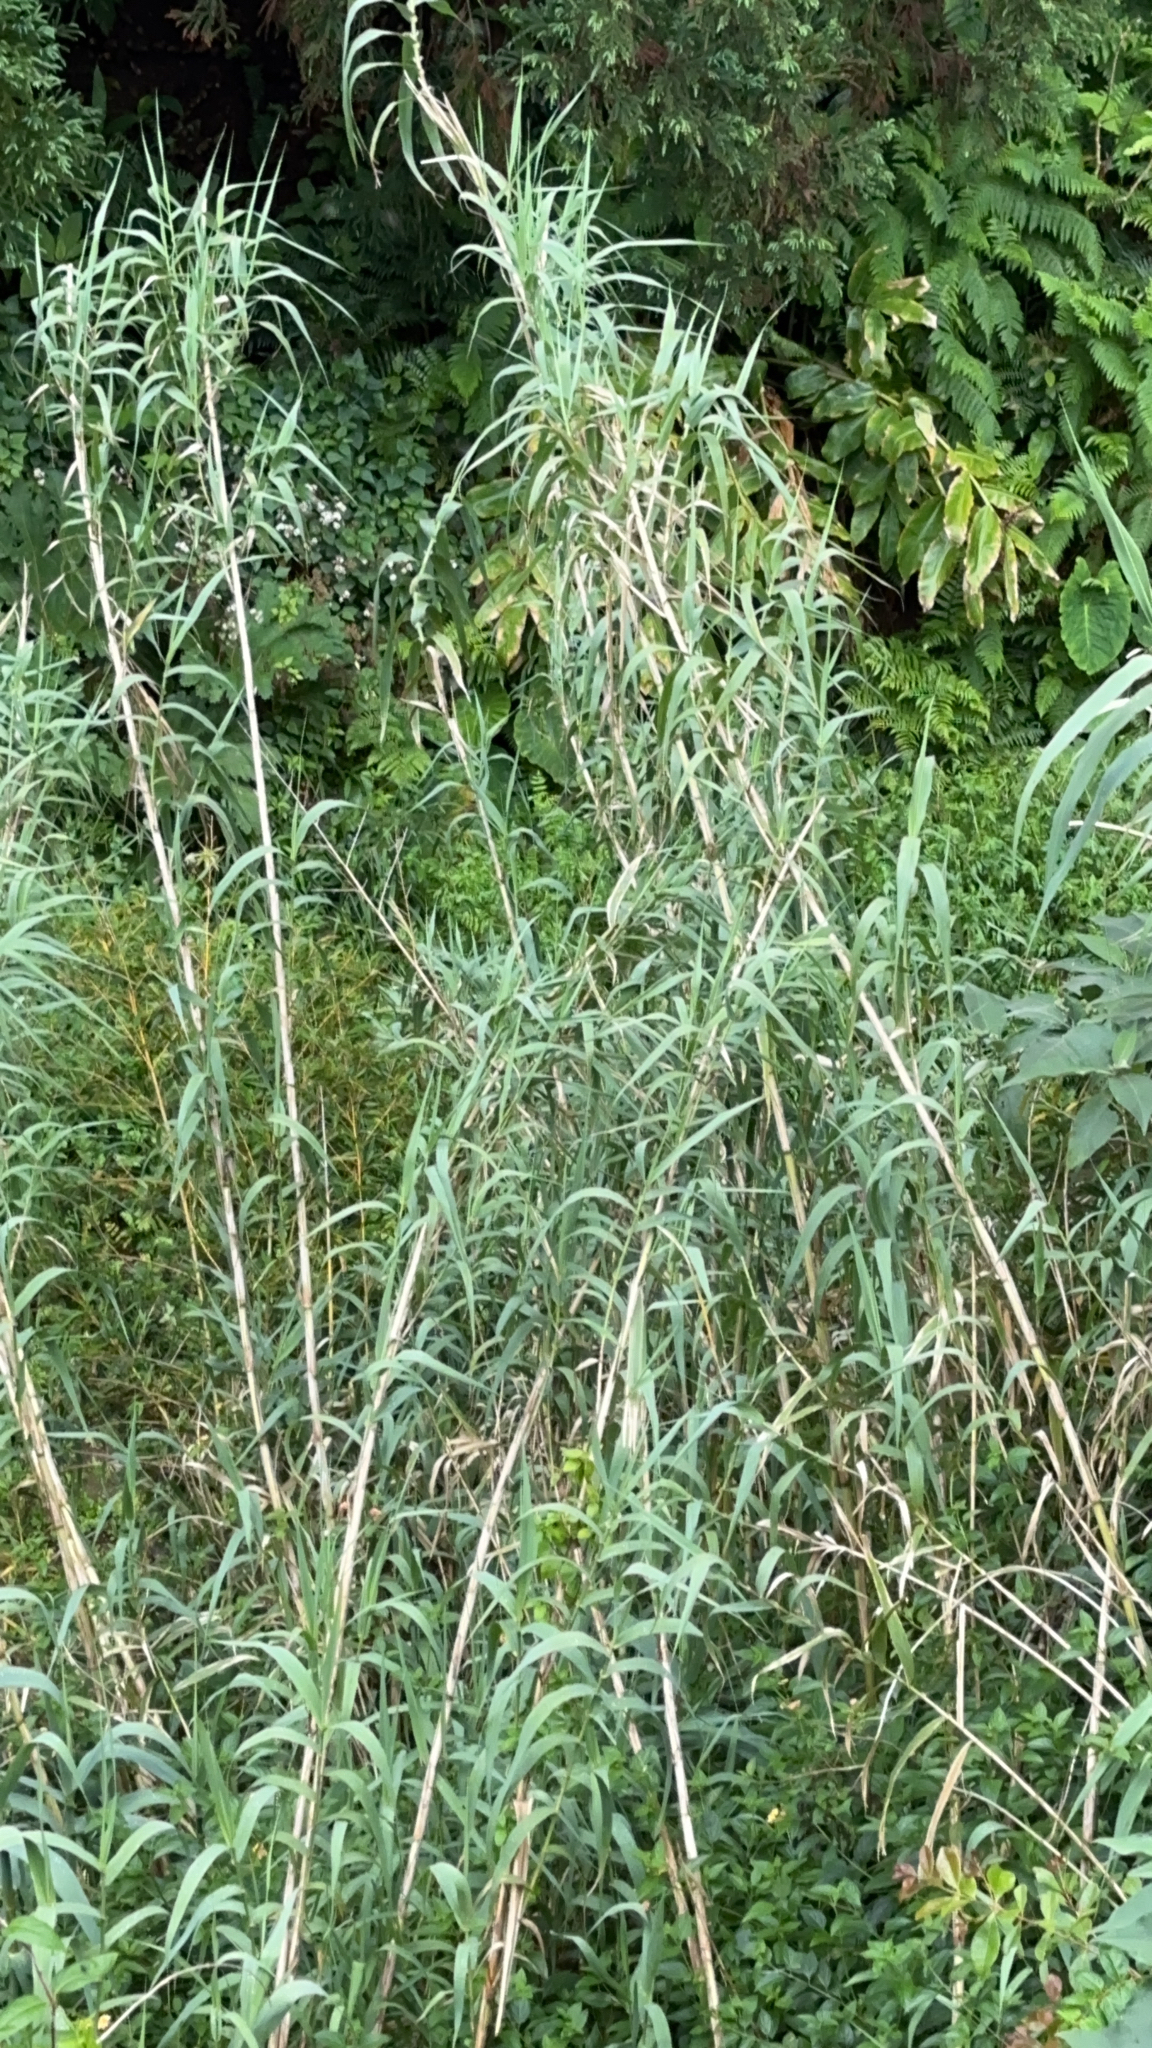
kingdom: Plantae
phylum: Tracheophyta
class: Liliopsida
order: Poales
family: Poaceae
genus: Arundo
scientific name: Arundo donax
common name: Giant reed
